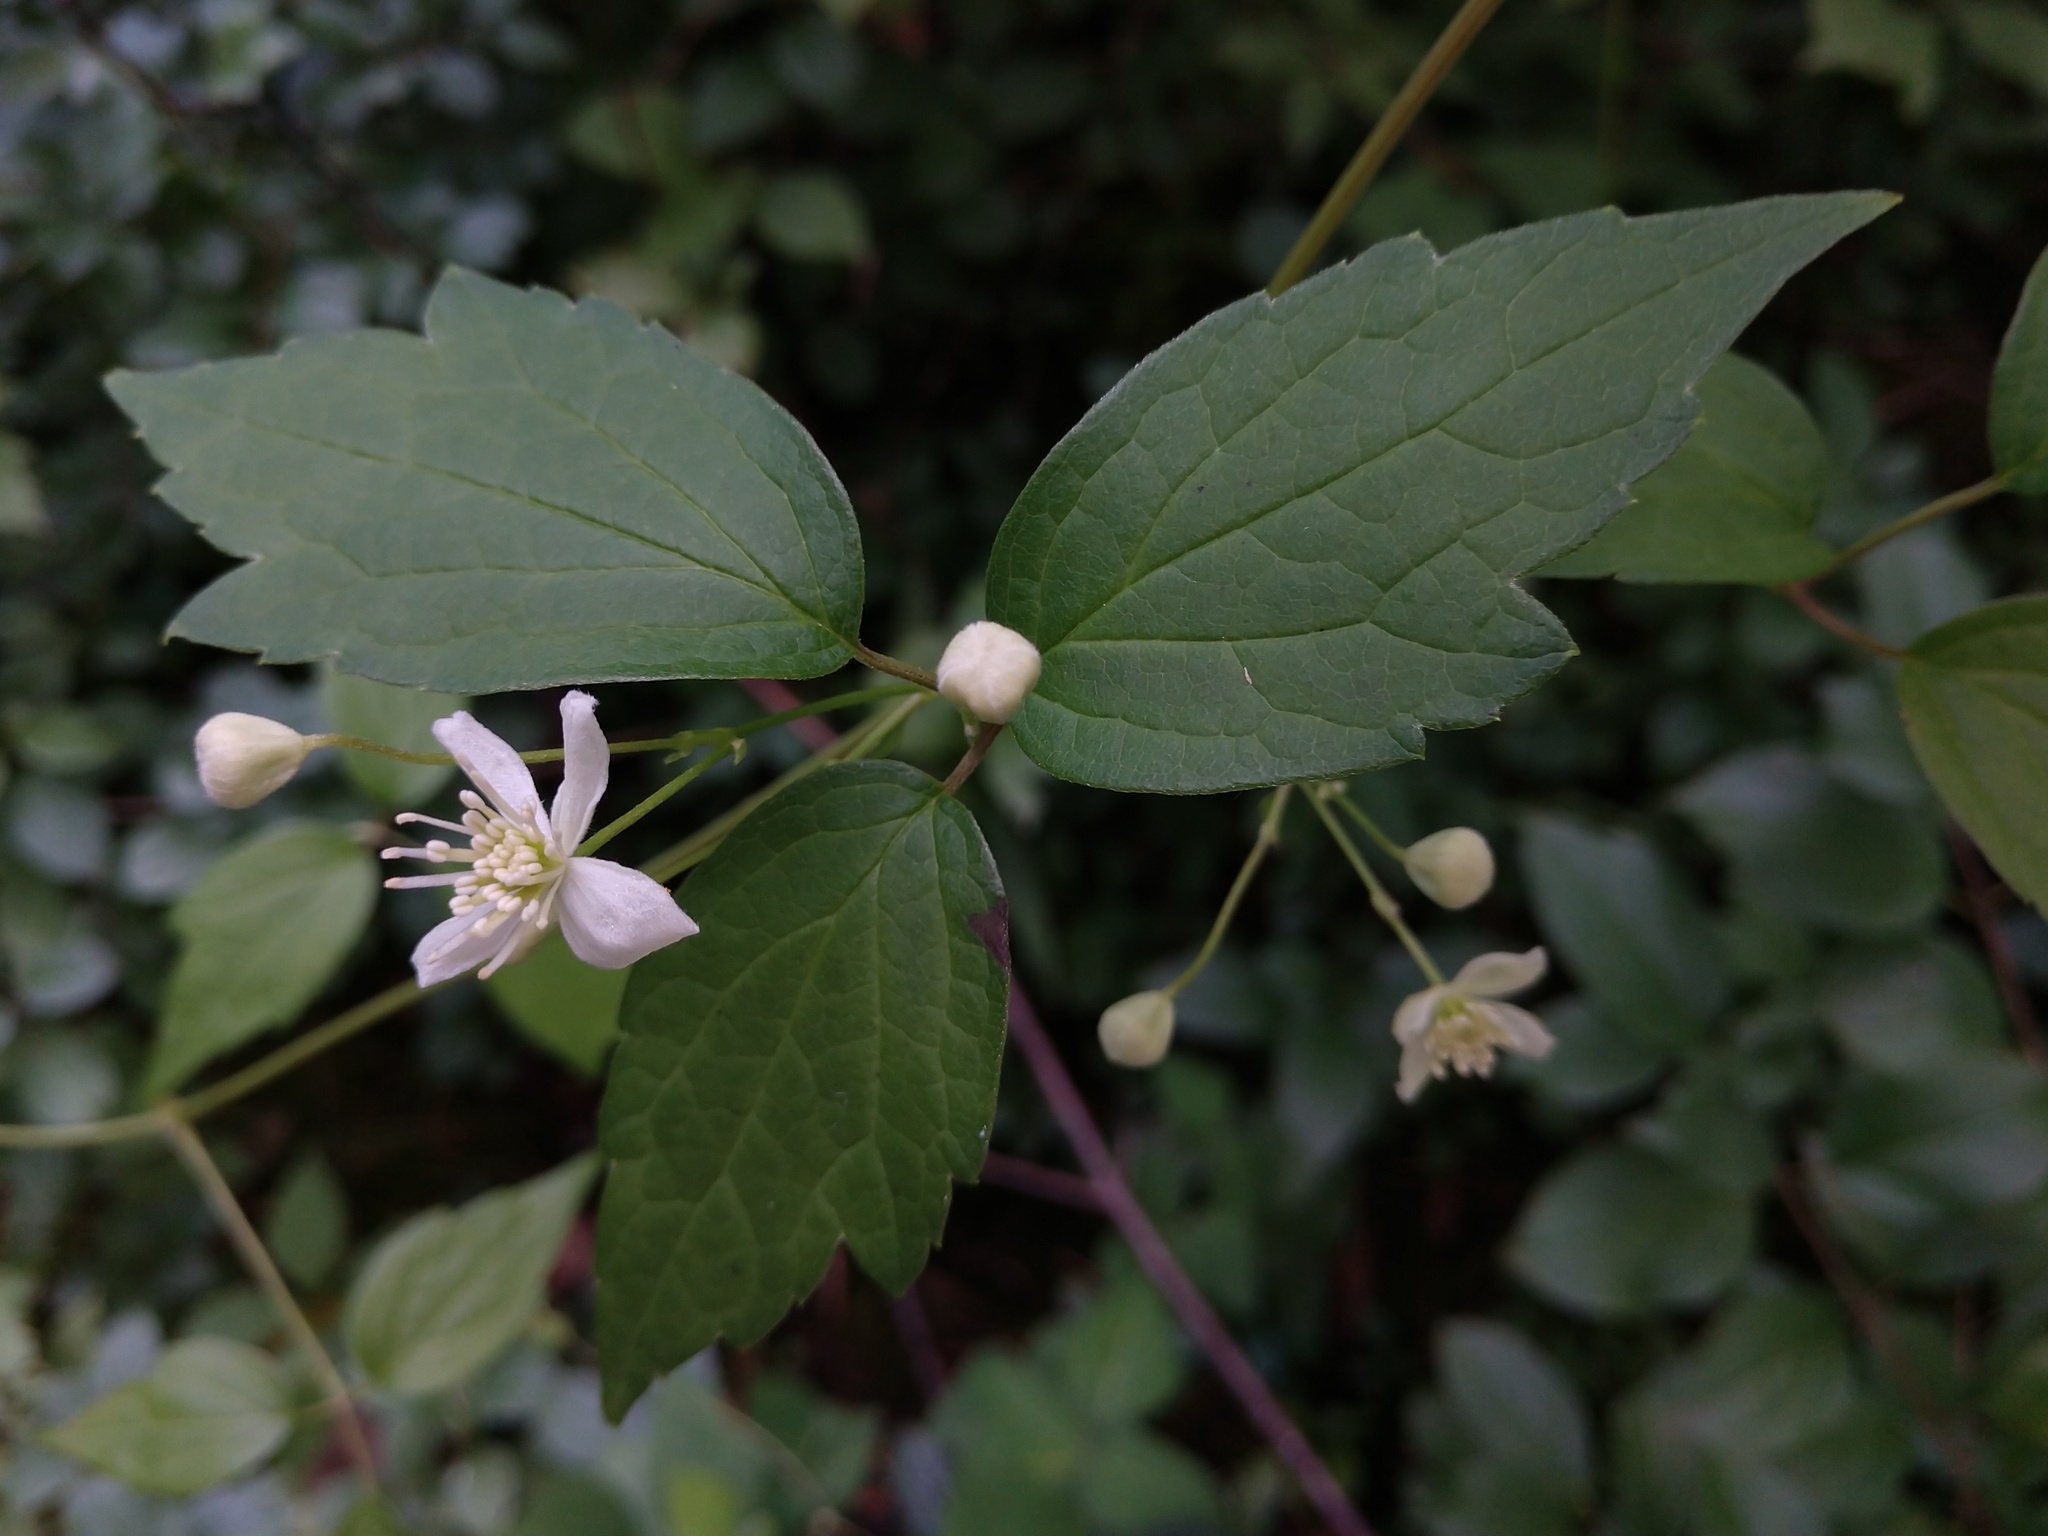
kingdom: Plantae
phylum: Tracheophyta
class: Magnoliopsida
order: Ranunculales
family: Ranunculaceae
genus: Clematis
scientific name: Clematis virginiana
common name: Virgin's-bower
